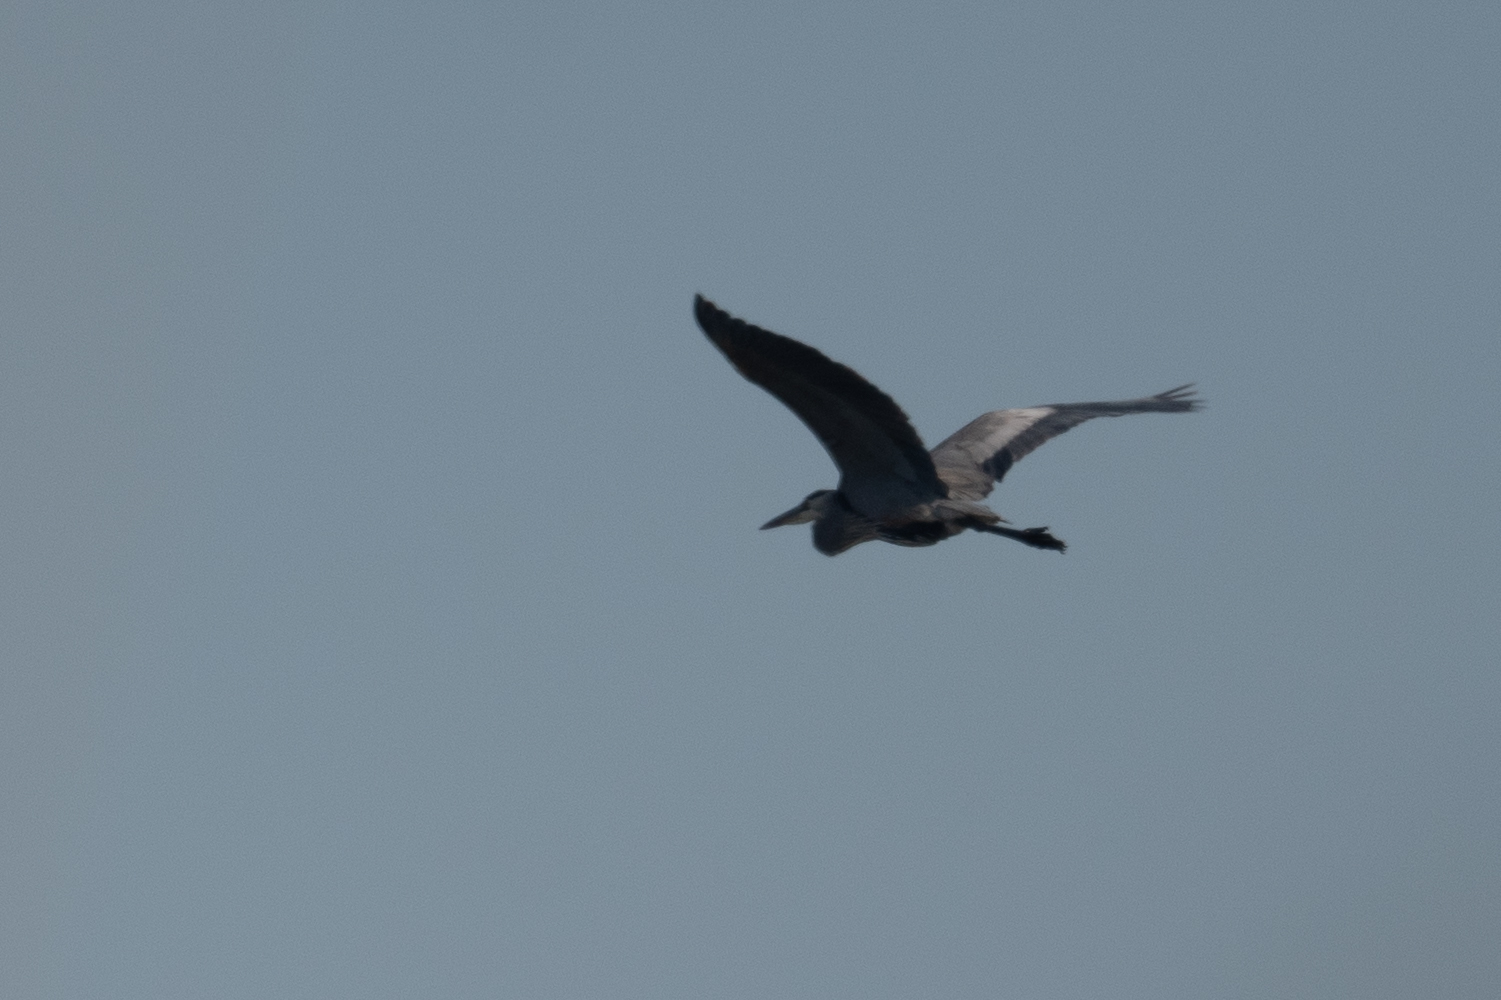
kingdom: Animalia
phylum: Chordata
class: Aves
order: Pelecaniformes
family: Ardeidae
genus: Ardea
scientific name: Ardea herodias
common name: Great blue heron
